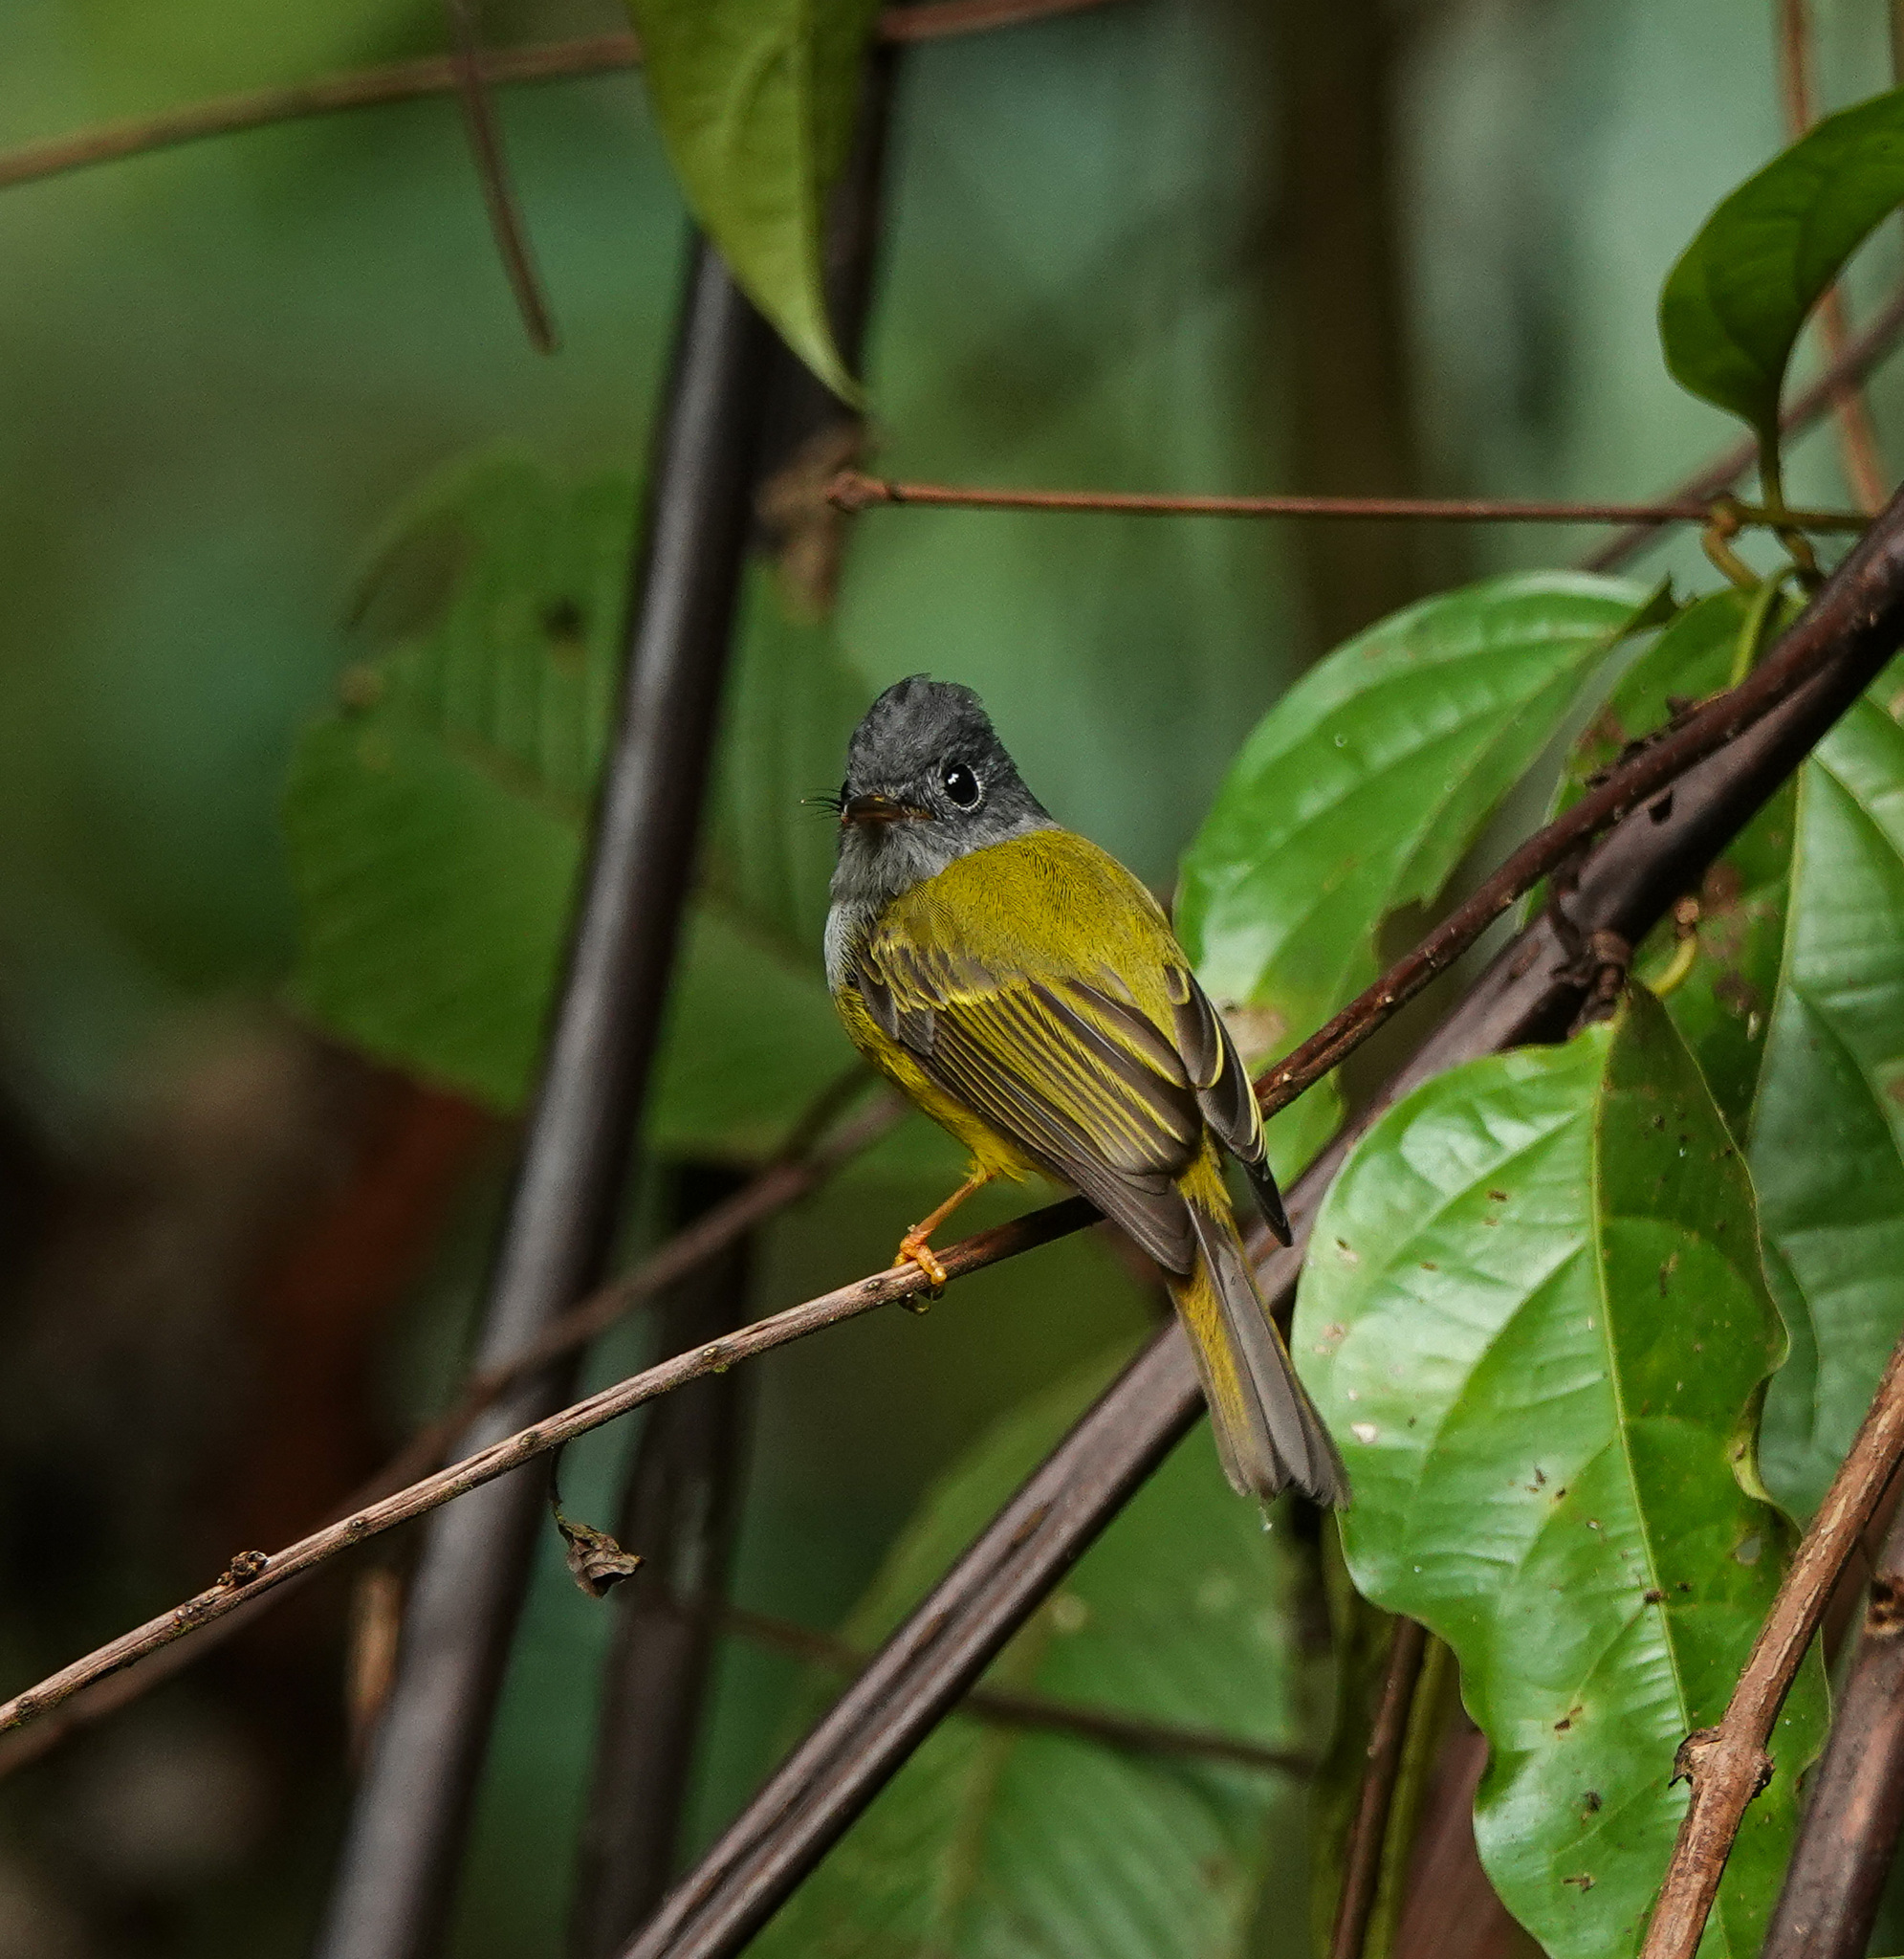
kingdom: Animalia
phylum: Chordata
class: Aves
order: Passeriformes
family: Stenostiridae
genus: Culicicapa
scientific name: Culicicapa ceylonensis
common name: Grey-headed canary-flycatcher
